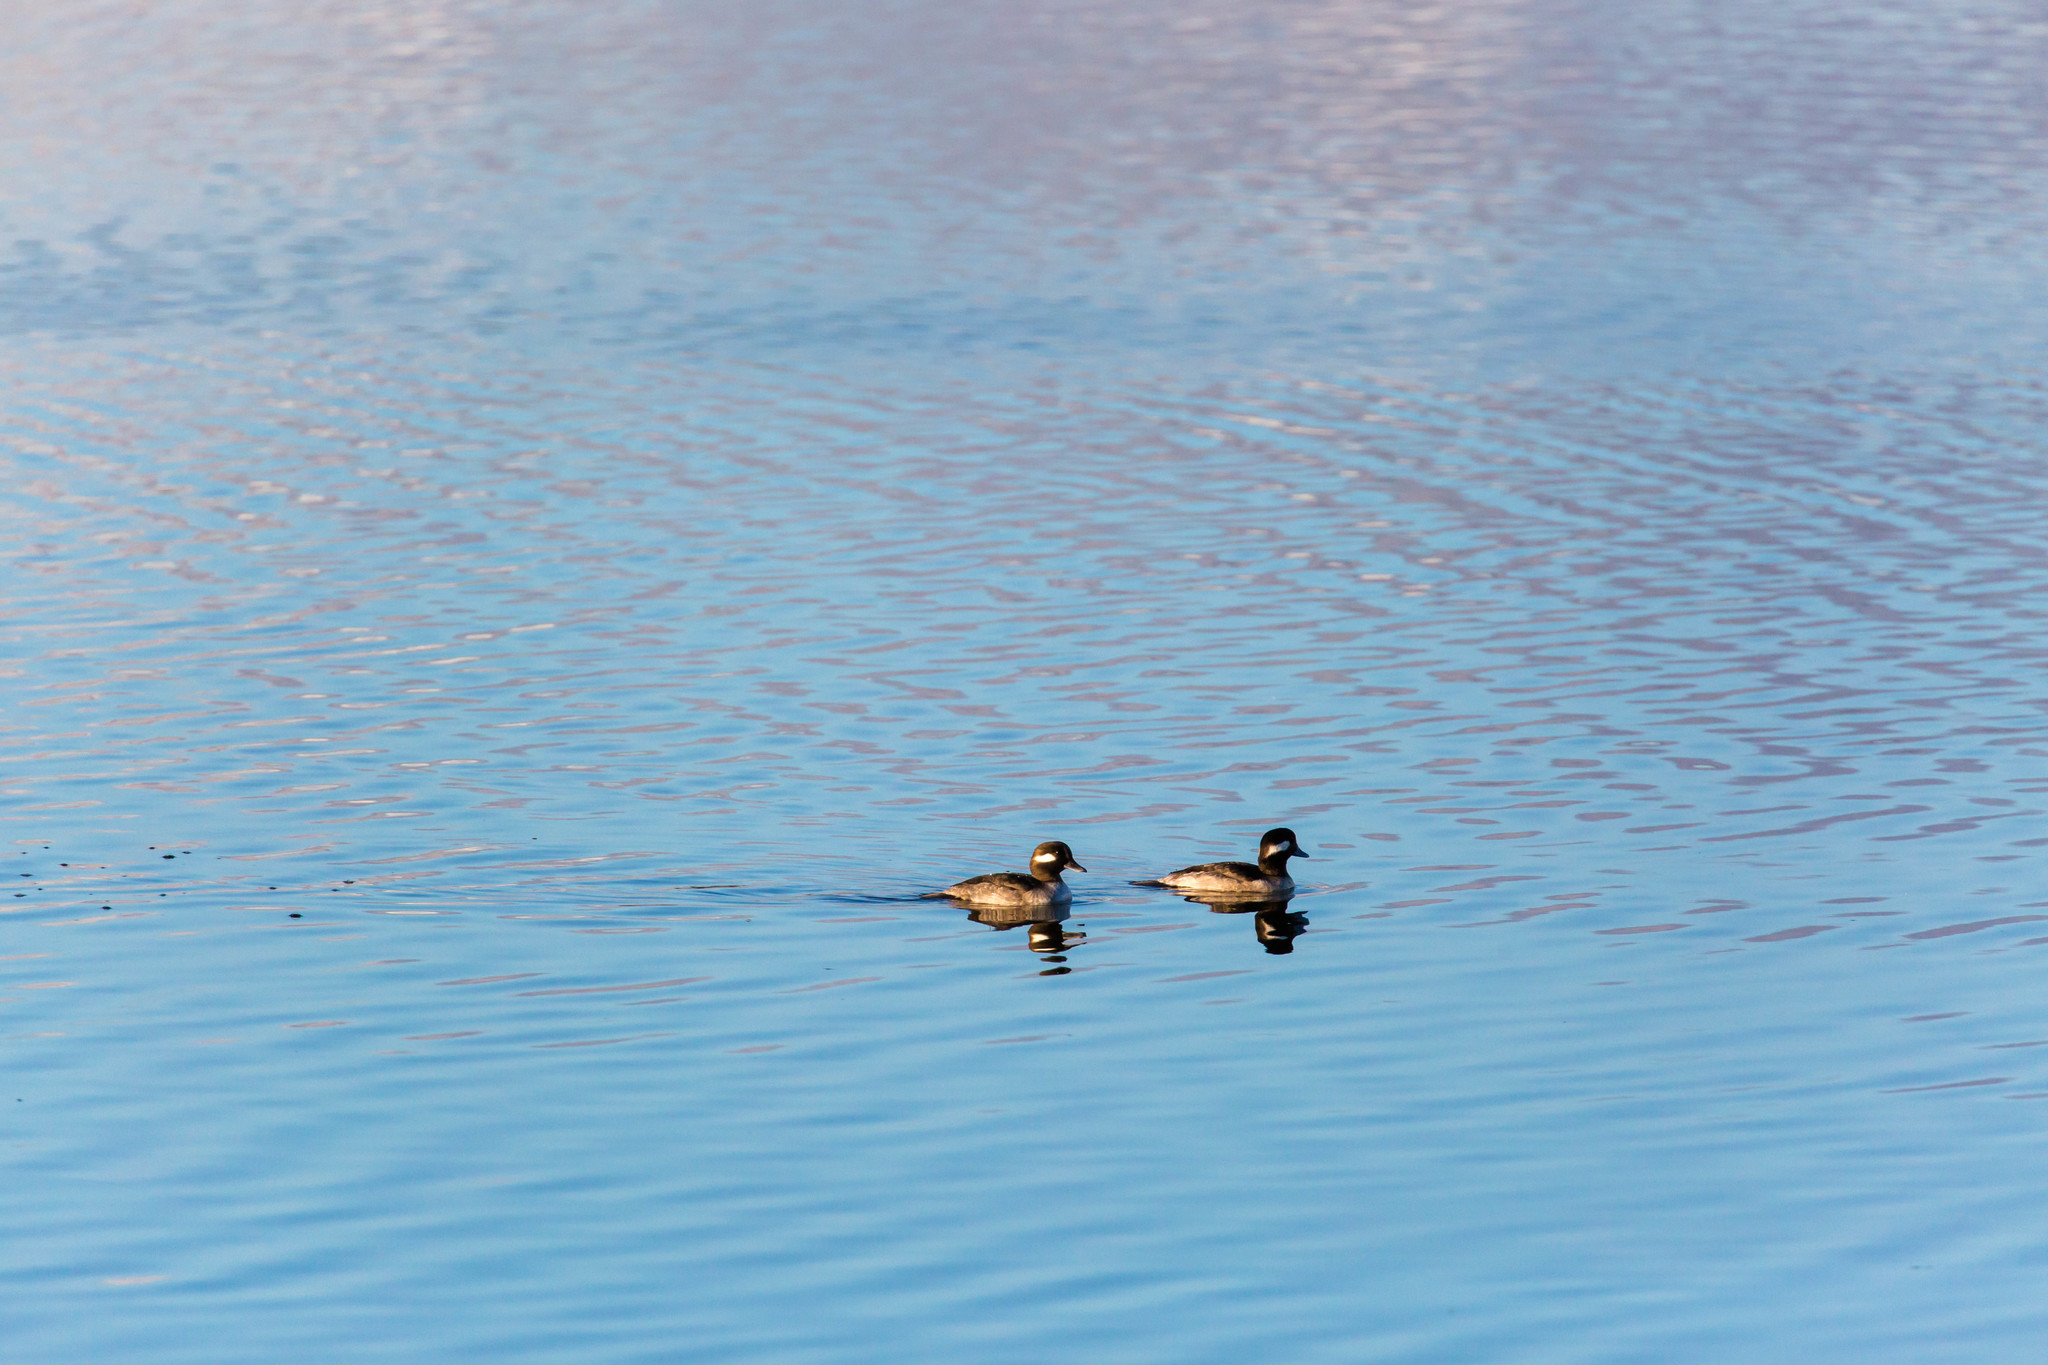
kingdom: Animalia
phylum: Chordata
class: Aves
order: Anseriformes
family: Anatidae
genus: Bucephala
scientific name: Bucephala albeola
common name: Bufflehead
